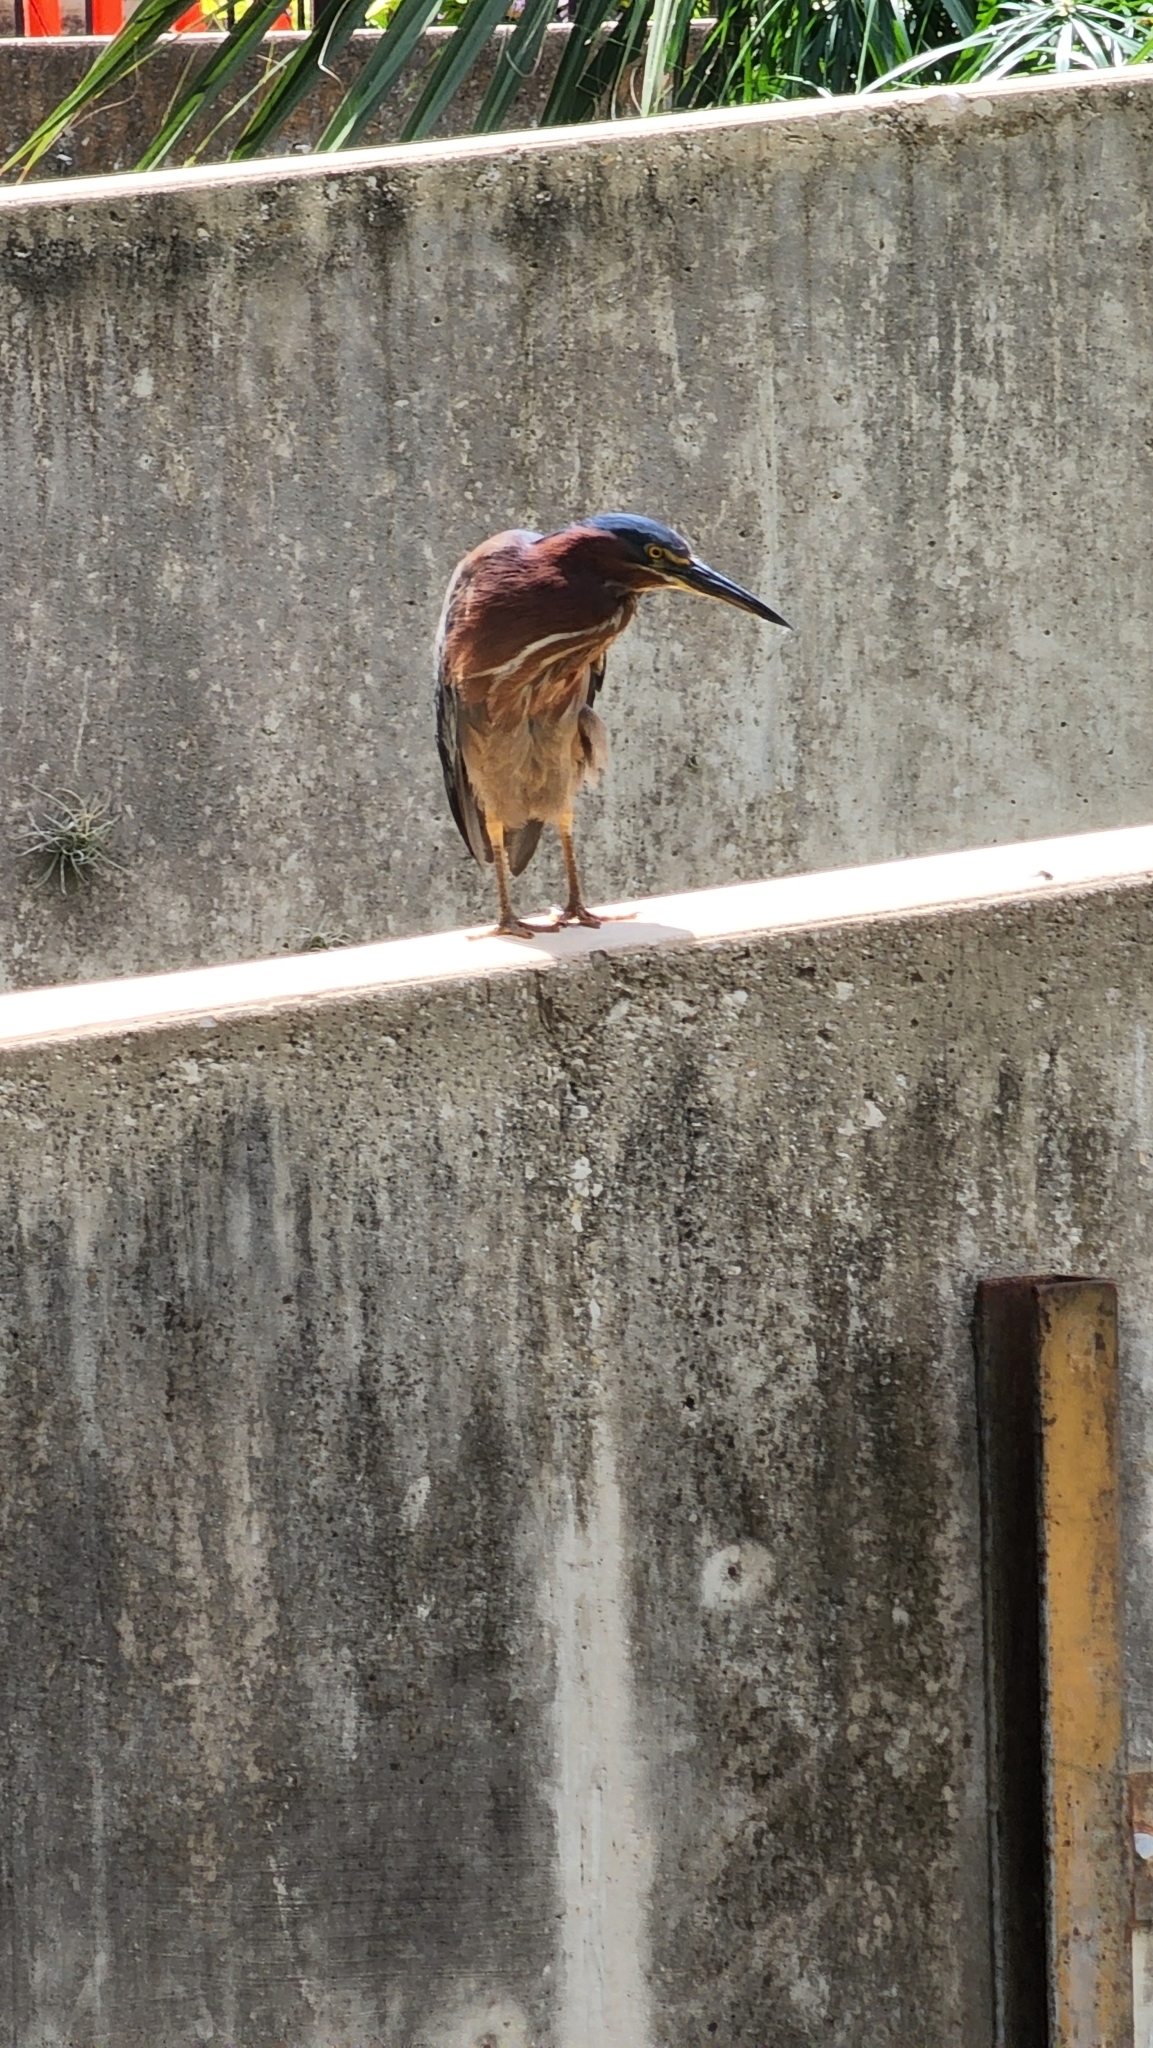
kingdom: Animalia
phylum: Chordata
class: Aves
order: Pelecaniformes
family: Ardeidae
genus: Butorides
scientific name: Butorides virescens
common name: Green heron
